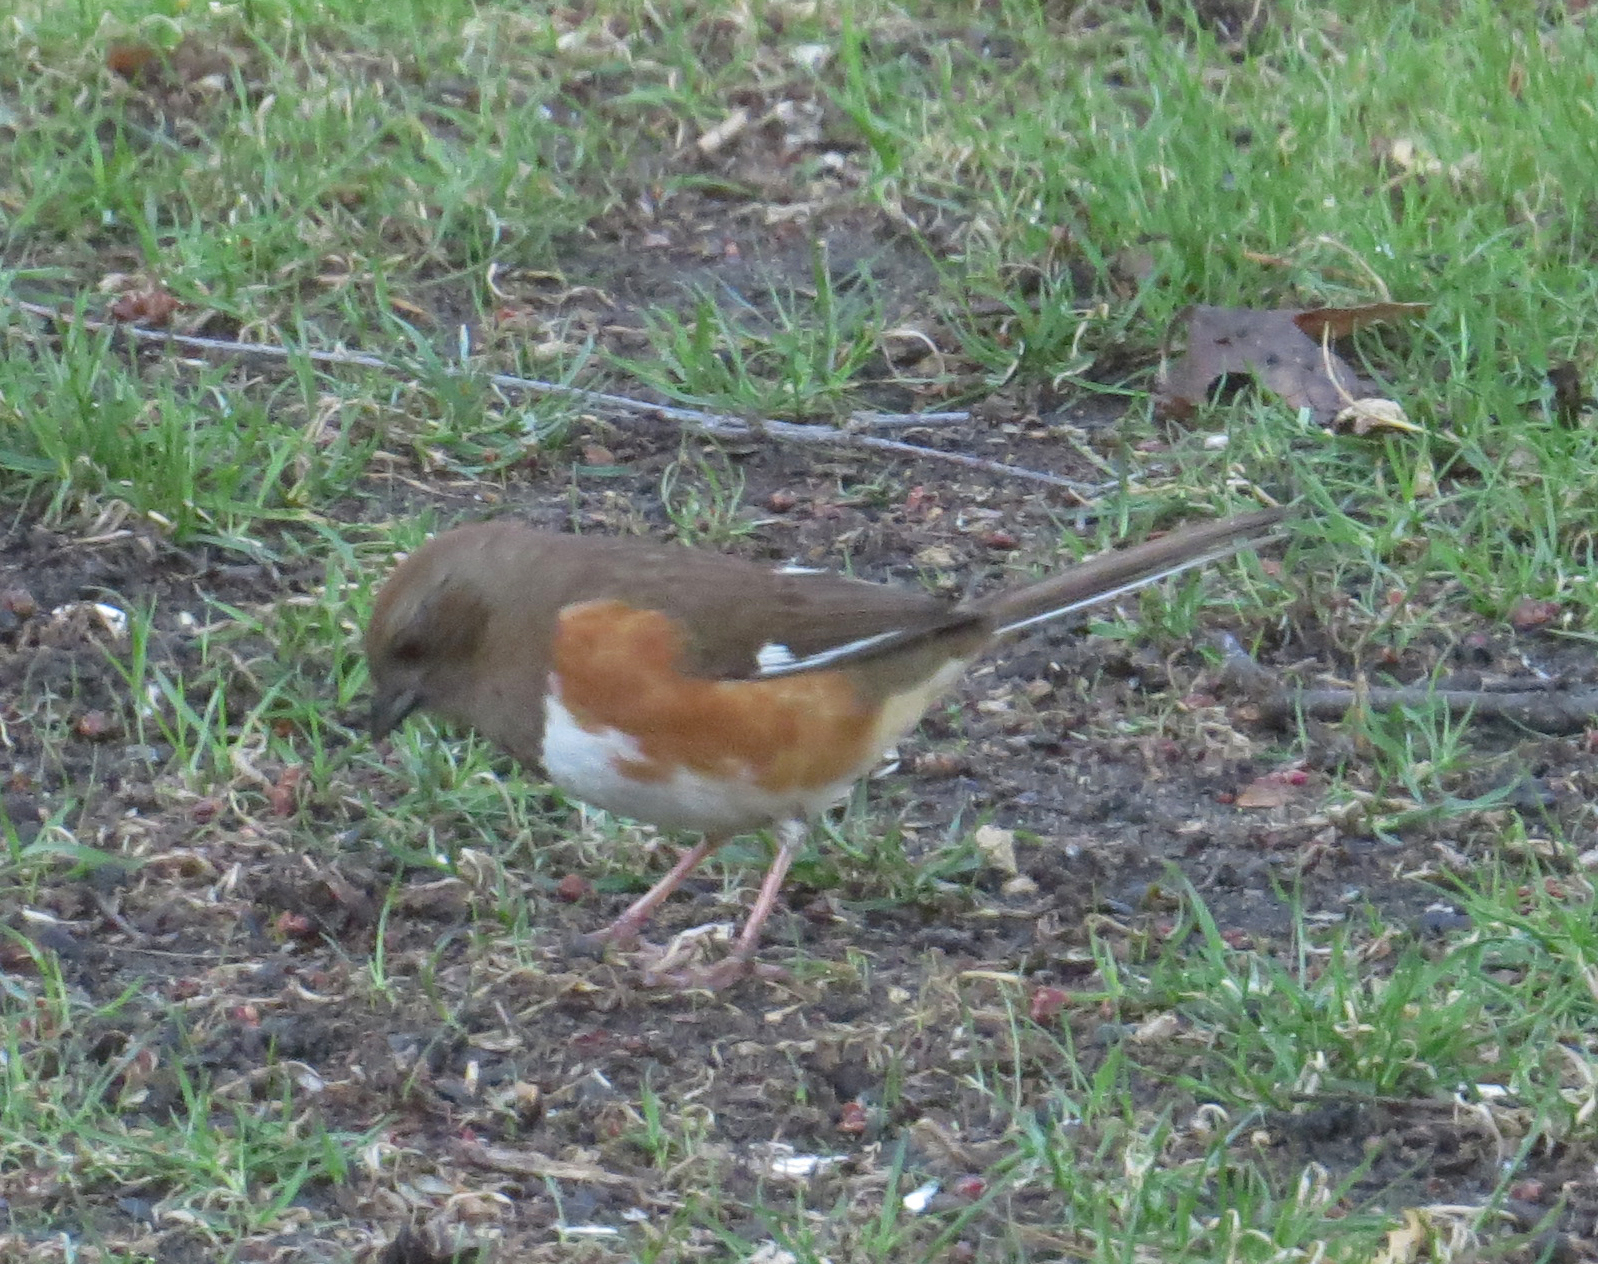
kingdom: Animalia
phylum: Chordata
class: Aves
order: Passeriformes
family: Passerellidae
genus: Pipilo
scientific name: Pipilo erythrophthalmus
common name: Eastern towhee
